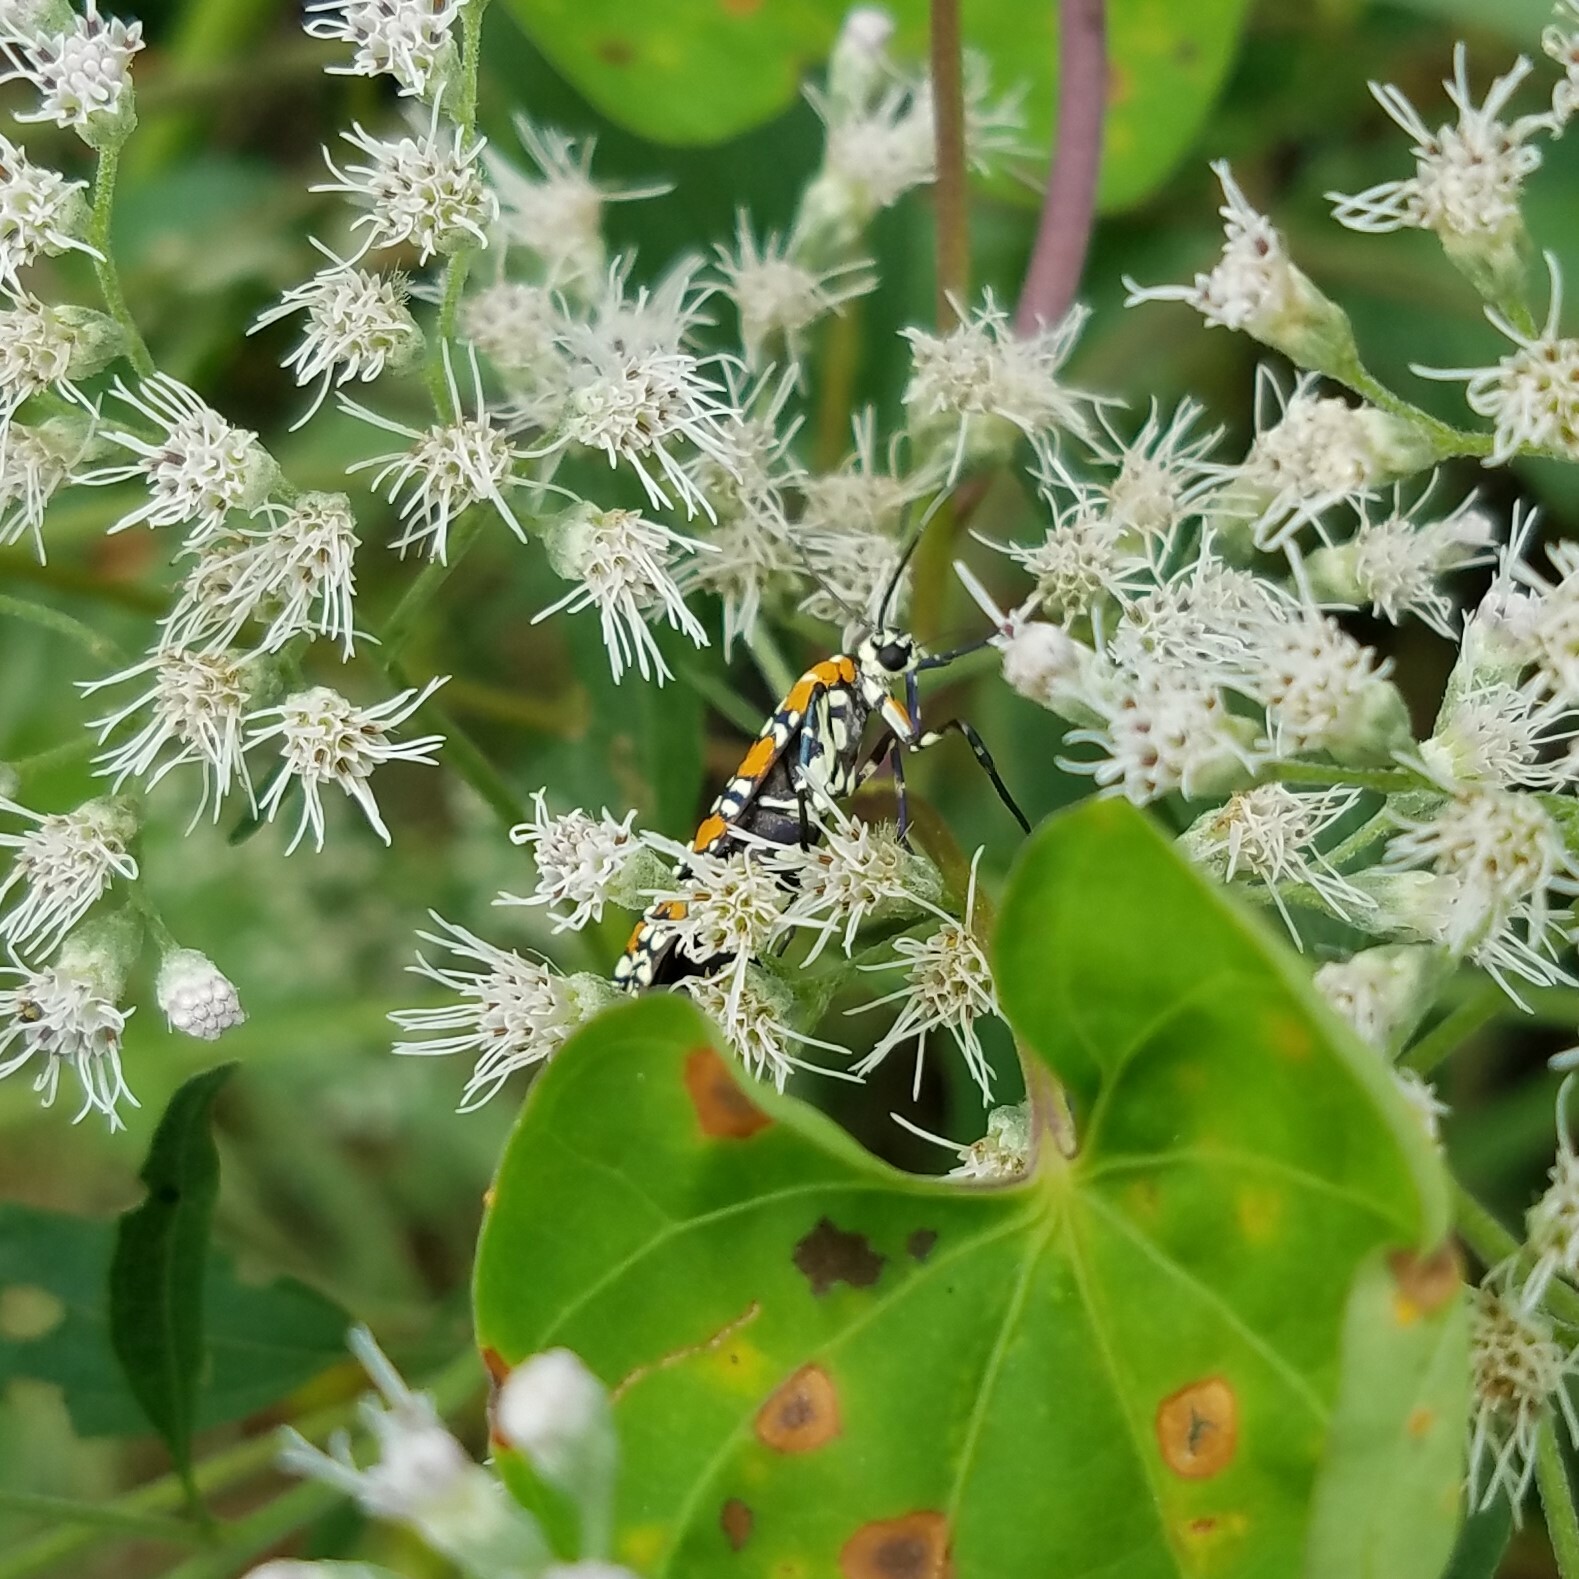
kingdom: Animalia
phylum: Arthropoda
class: Insecta
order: Lepidoptera
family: Attevidae
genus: Atteva
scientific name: Atteva punctella
